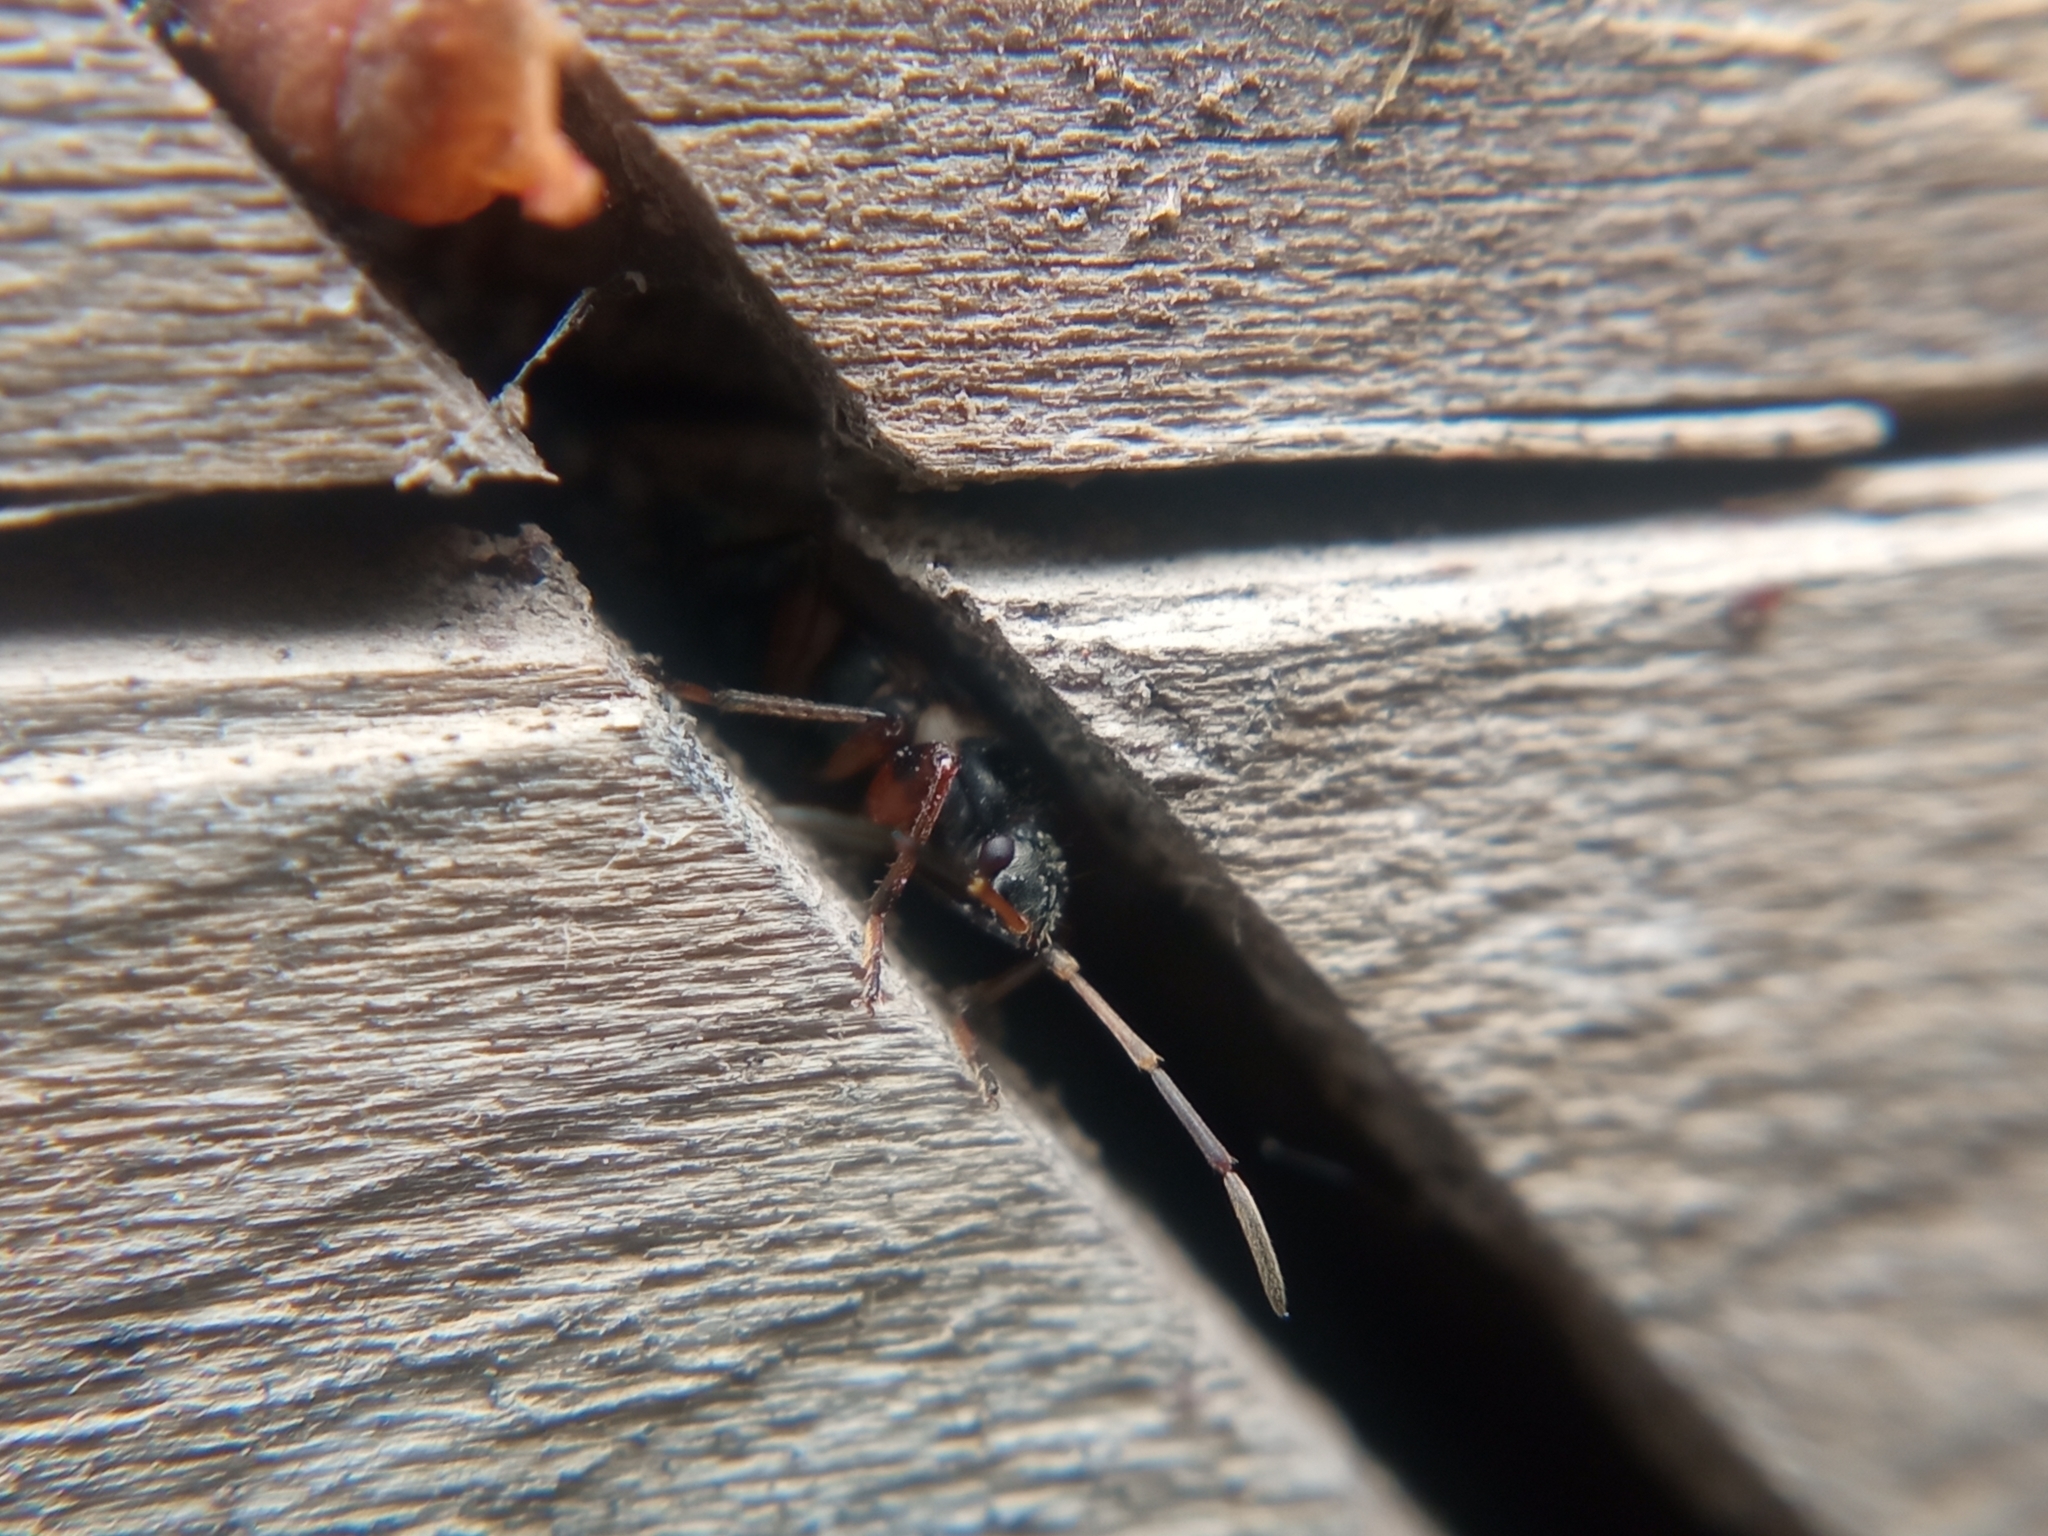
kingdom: Animalia
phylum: Arthropoda
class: Insecta
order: Hemiptera
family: Rhyparochromidae
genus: Raglius
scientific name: Raglius alboacuminatus
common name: Dirt-colored seed bug
